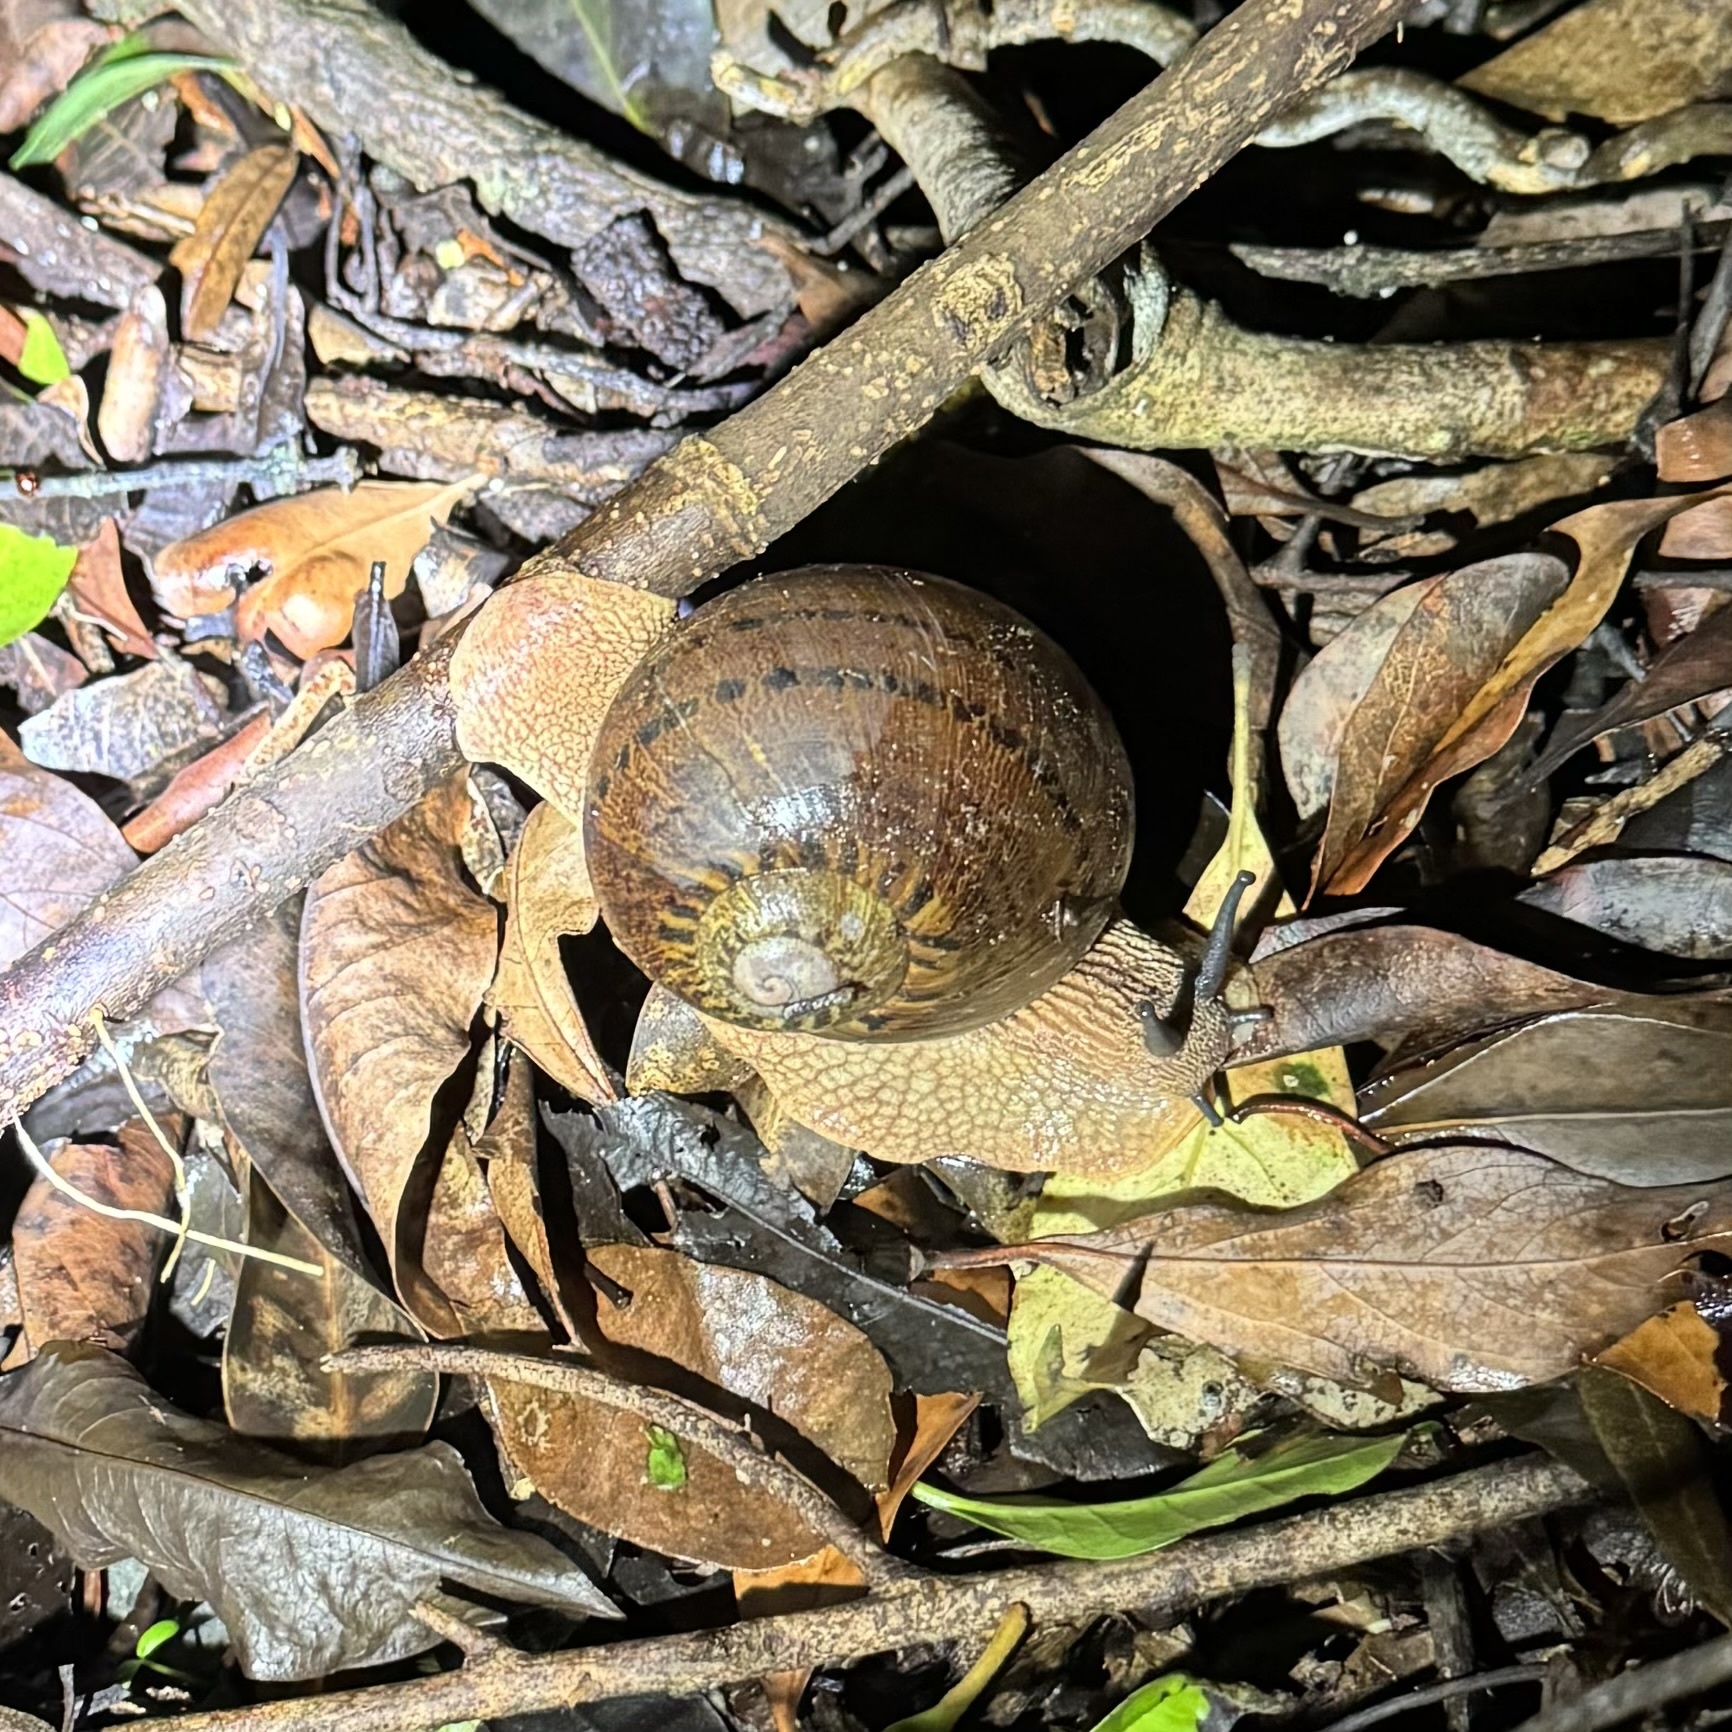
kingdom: Animalia
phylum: Mollusca
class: Gastropoda
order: Stylommatophora
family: Caryodidae
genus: Hedleyella
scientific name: Hedleyella falconeri
